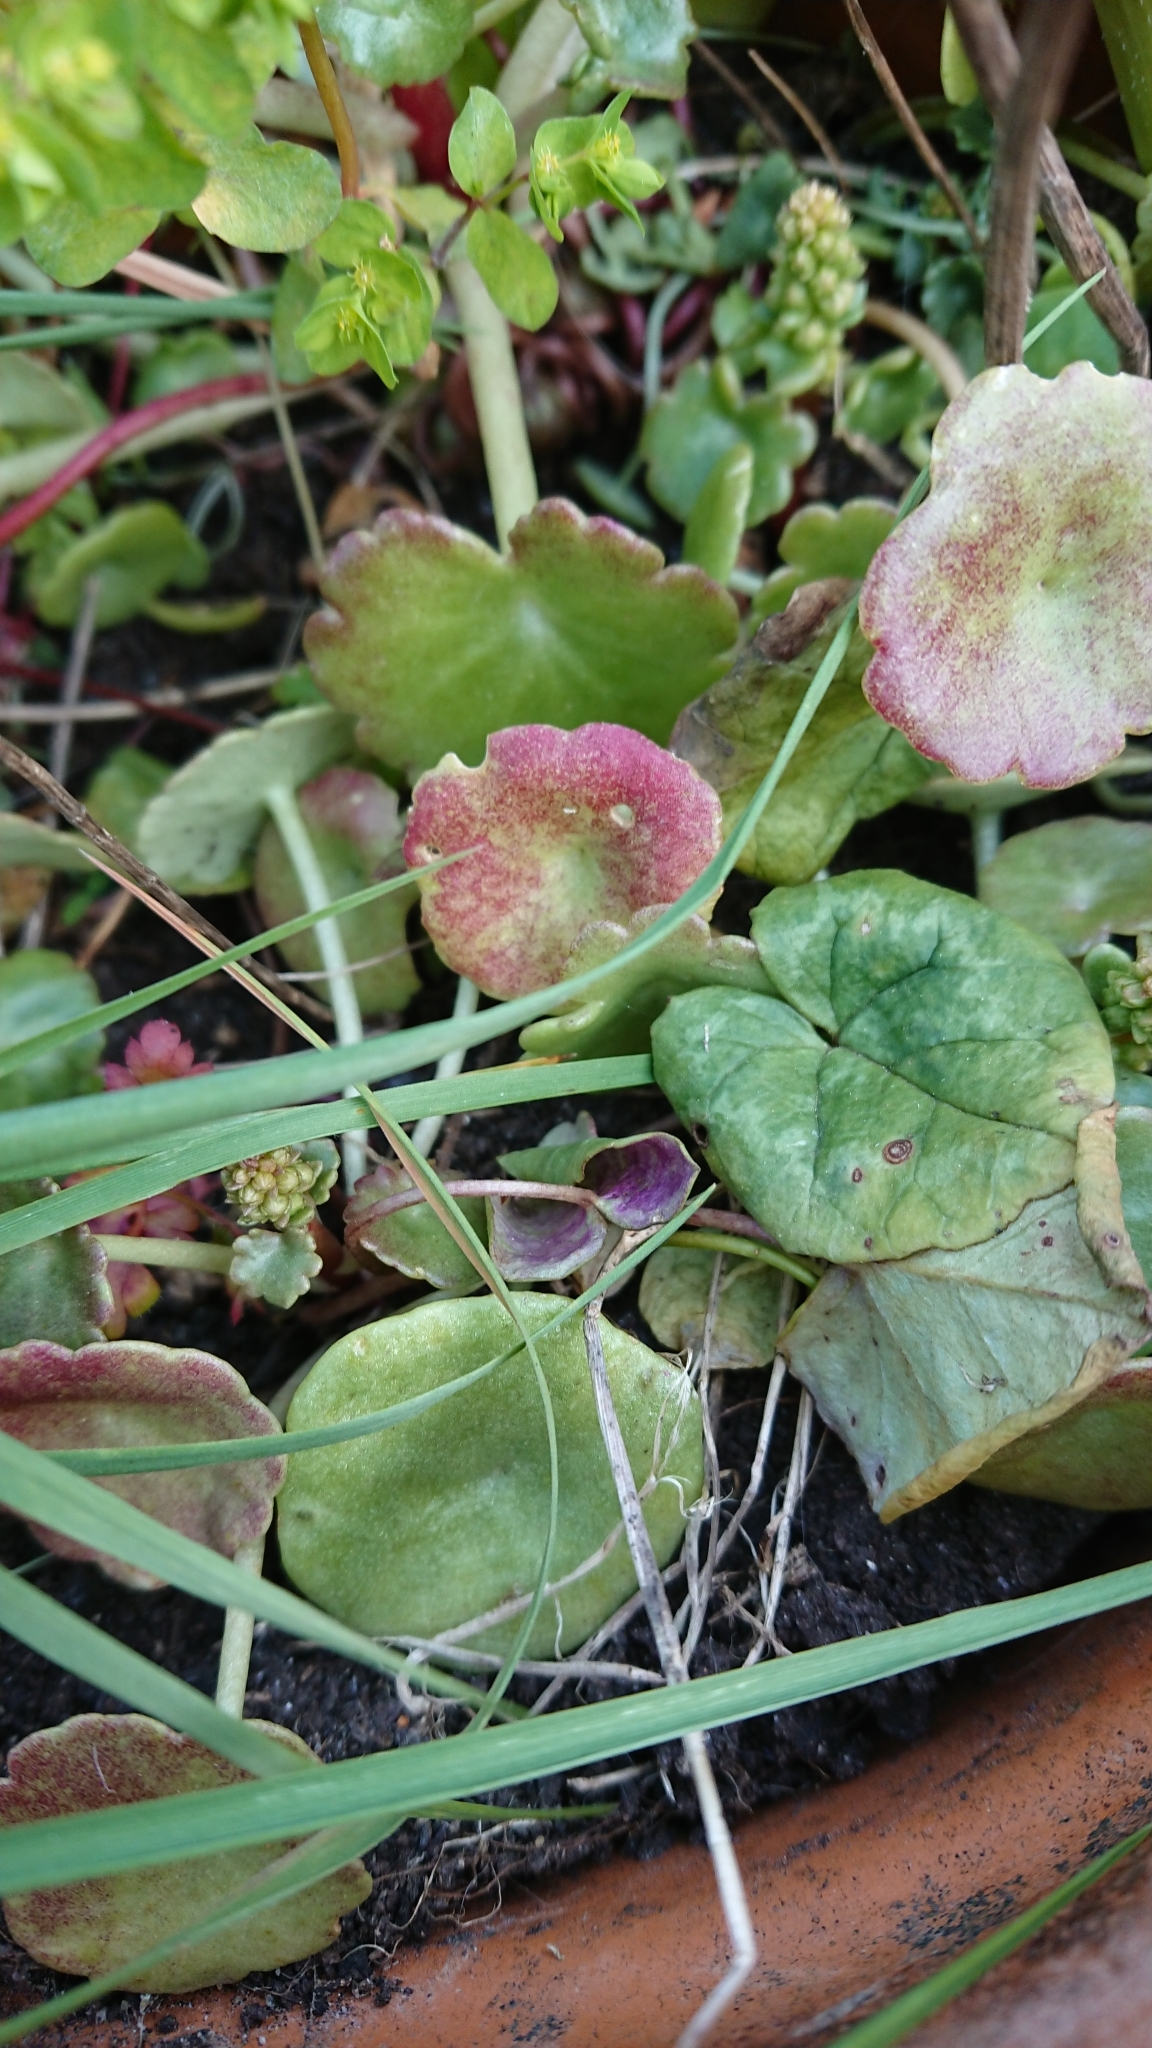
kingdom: Plantae
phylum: Tracheophyta
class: Magnoliopsida
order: Saxifragales
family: Crassulaceae
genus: Umbilicus
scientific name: Umbilicus rupestris
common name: Navelwort
